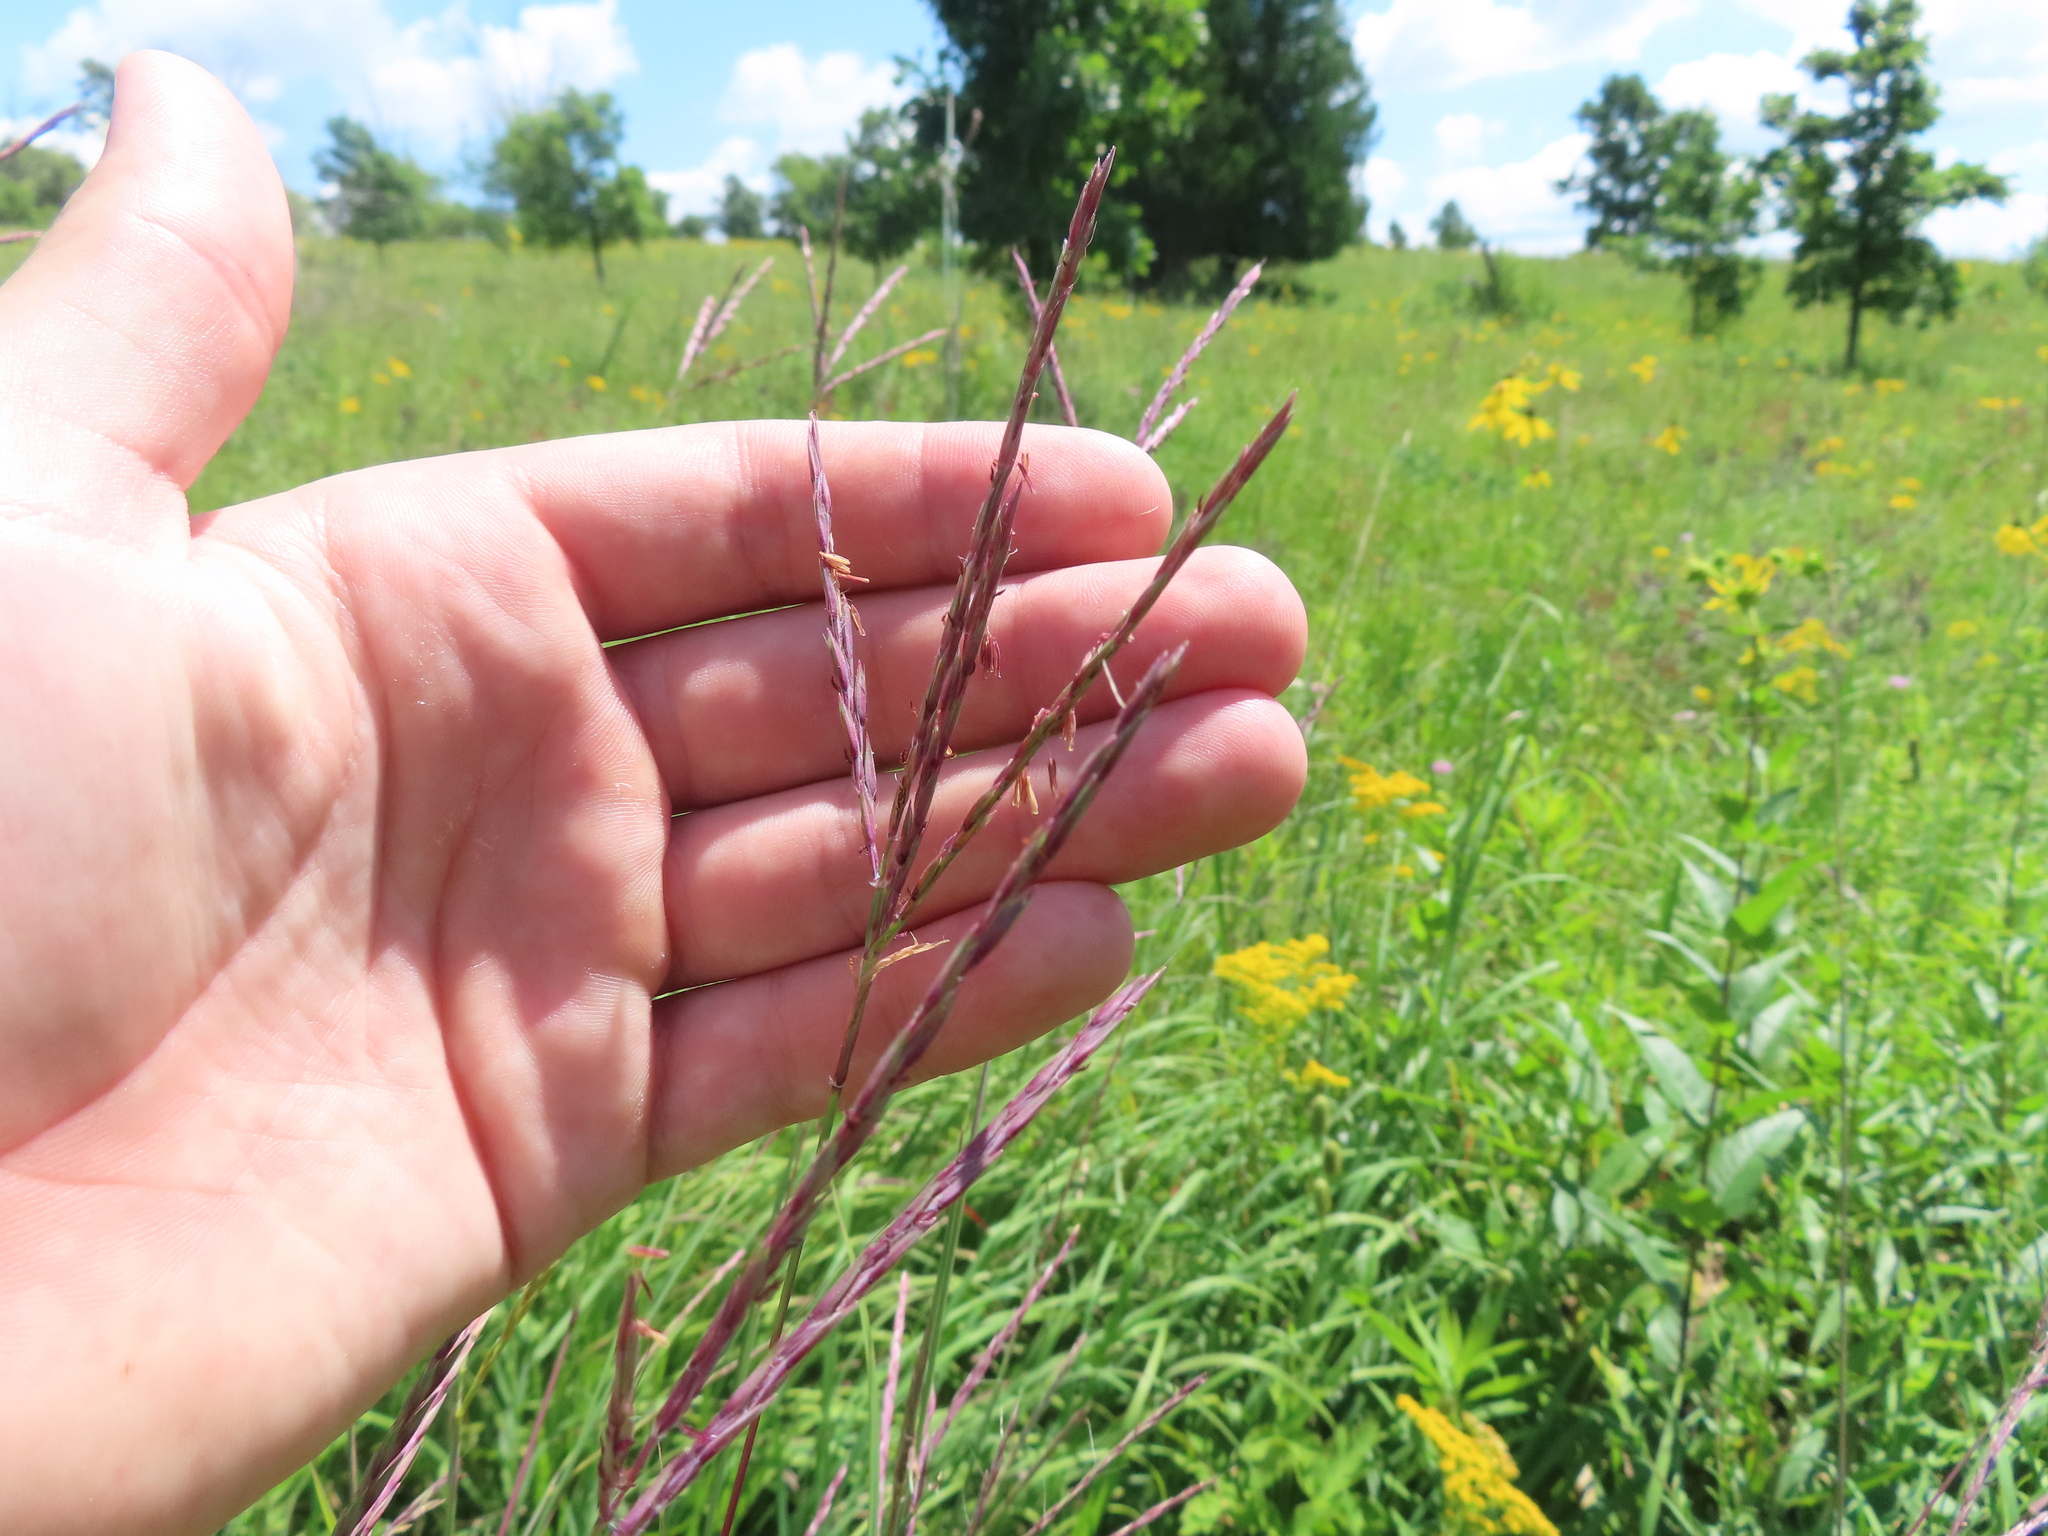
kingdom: Plantae
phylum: Tracheophyta
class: Liliopsida
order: Poales
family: Poaceae
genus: Andropogon
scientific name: Andropogon gerardi
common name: Big bluestem
